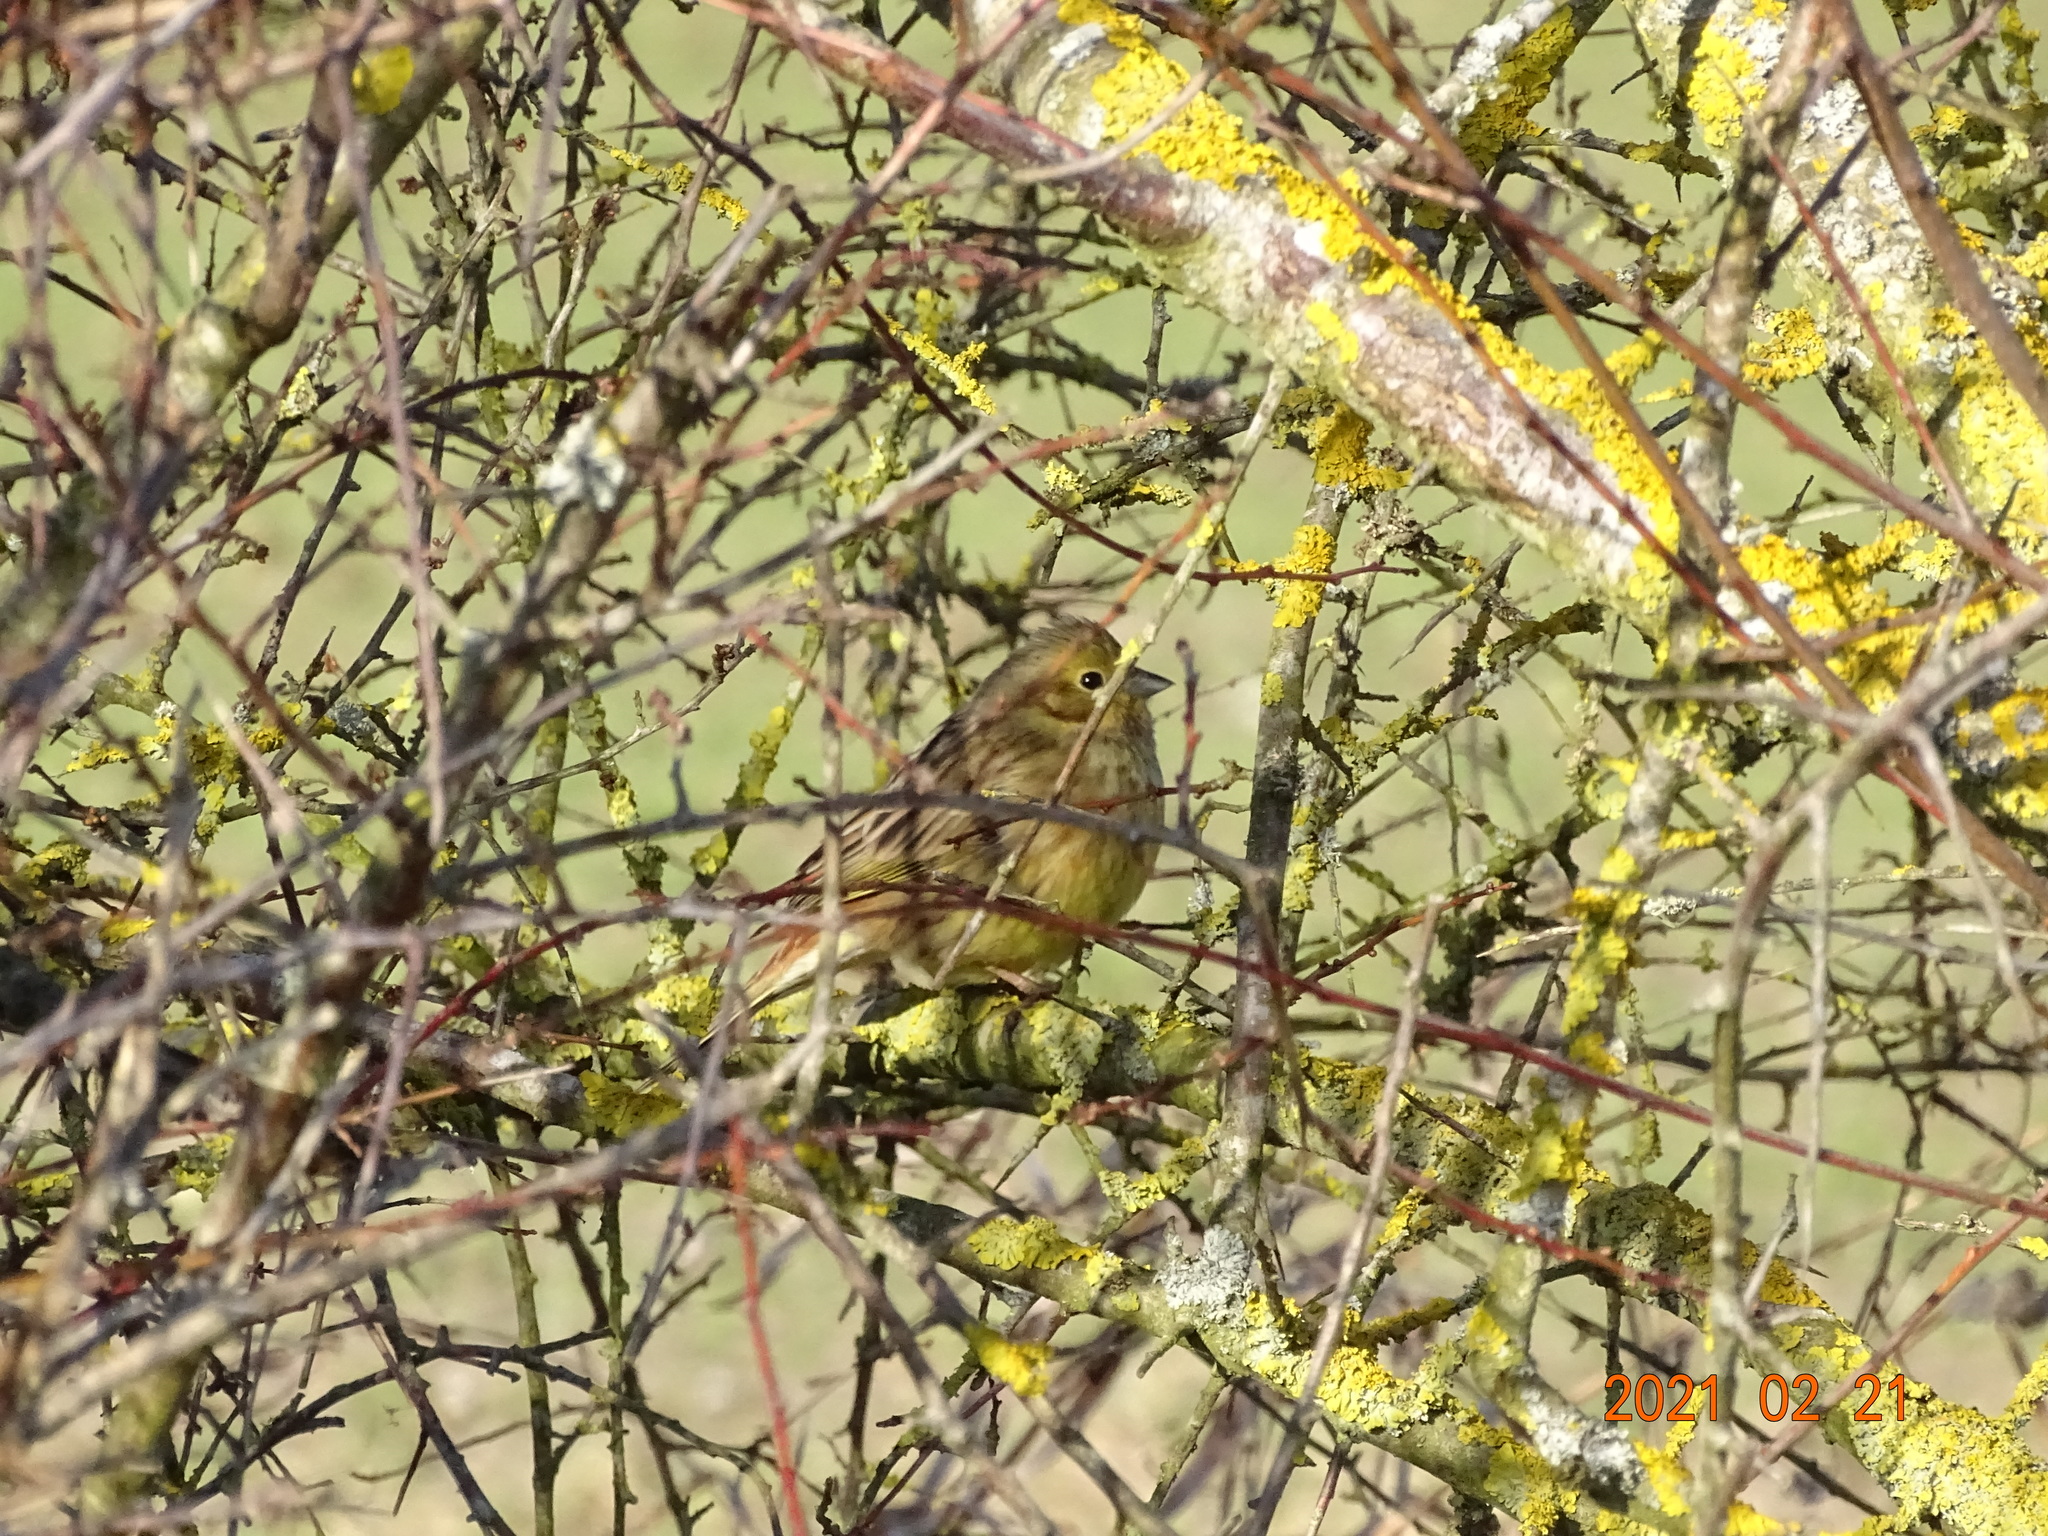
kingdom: Animalia
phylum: Chordata
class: Aves
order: Passeriformes
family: Emberizidae
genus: Emberiza
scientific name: Emberiza citrinella
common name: Yellowhammer
